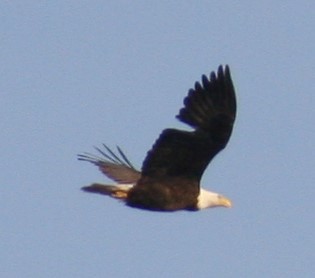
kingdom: Animalia
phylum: Chordata
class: Aves
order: Accipitriformes
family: Accipitridae
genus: Haliaeetus
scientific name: Haliaeetus leucocephalus
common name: Bald eagle
